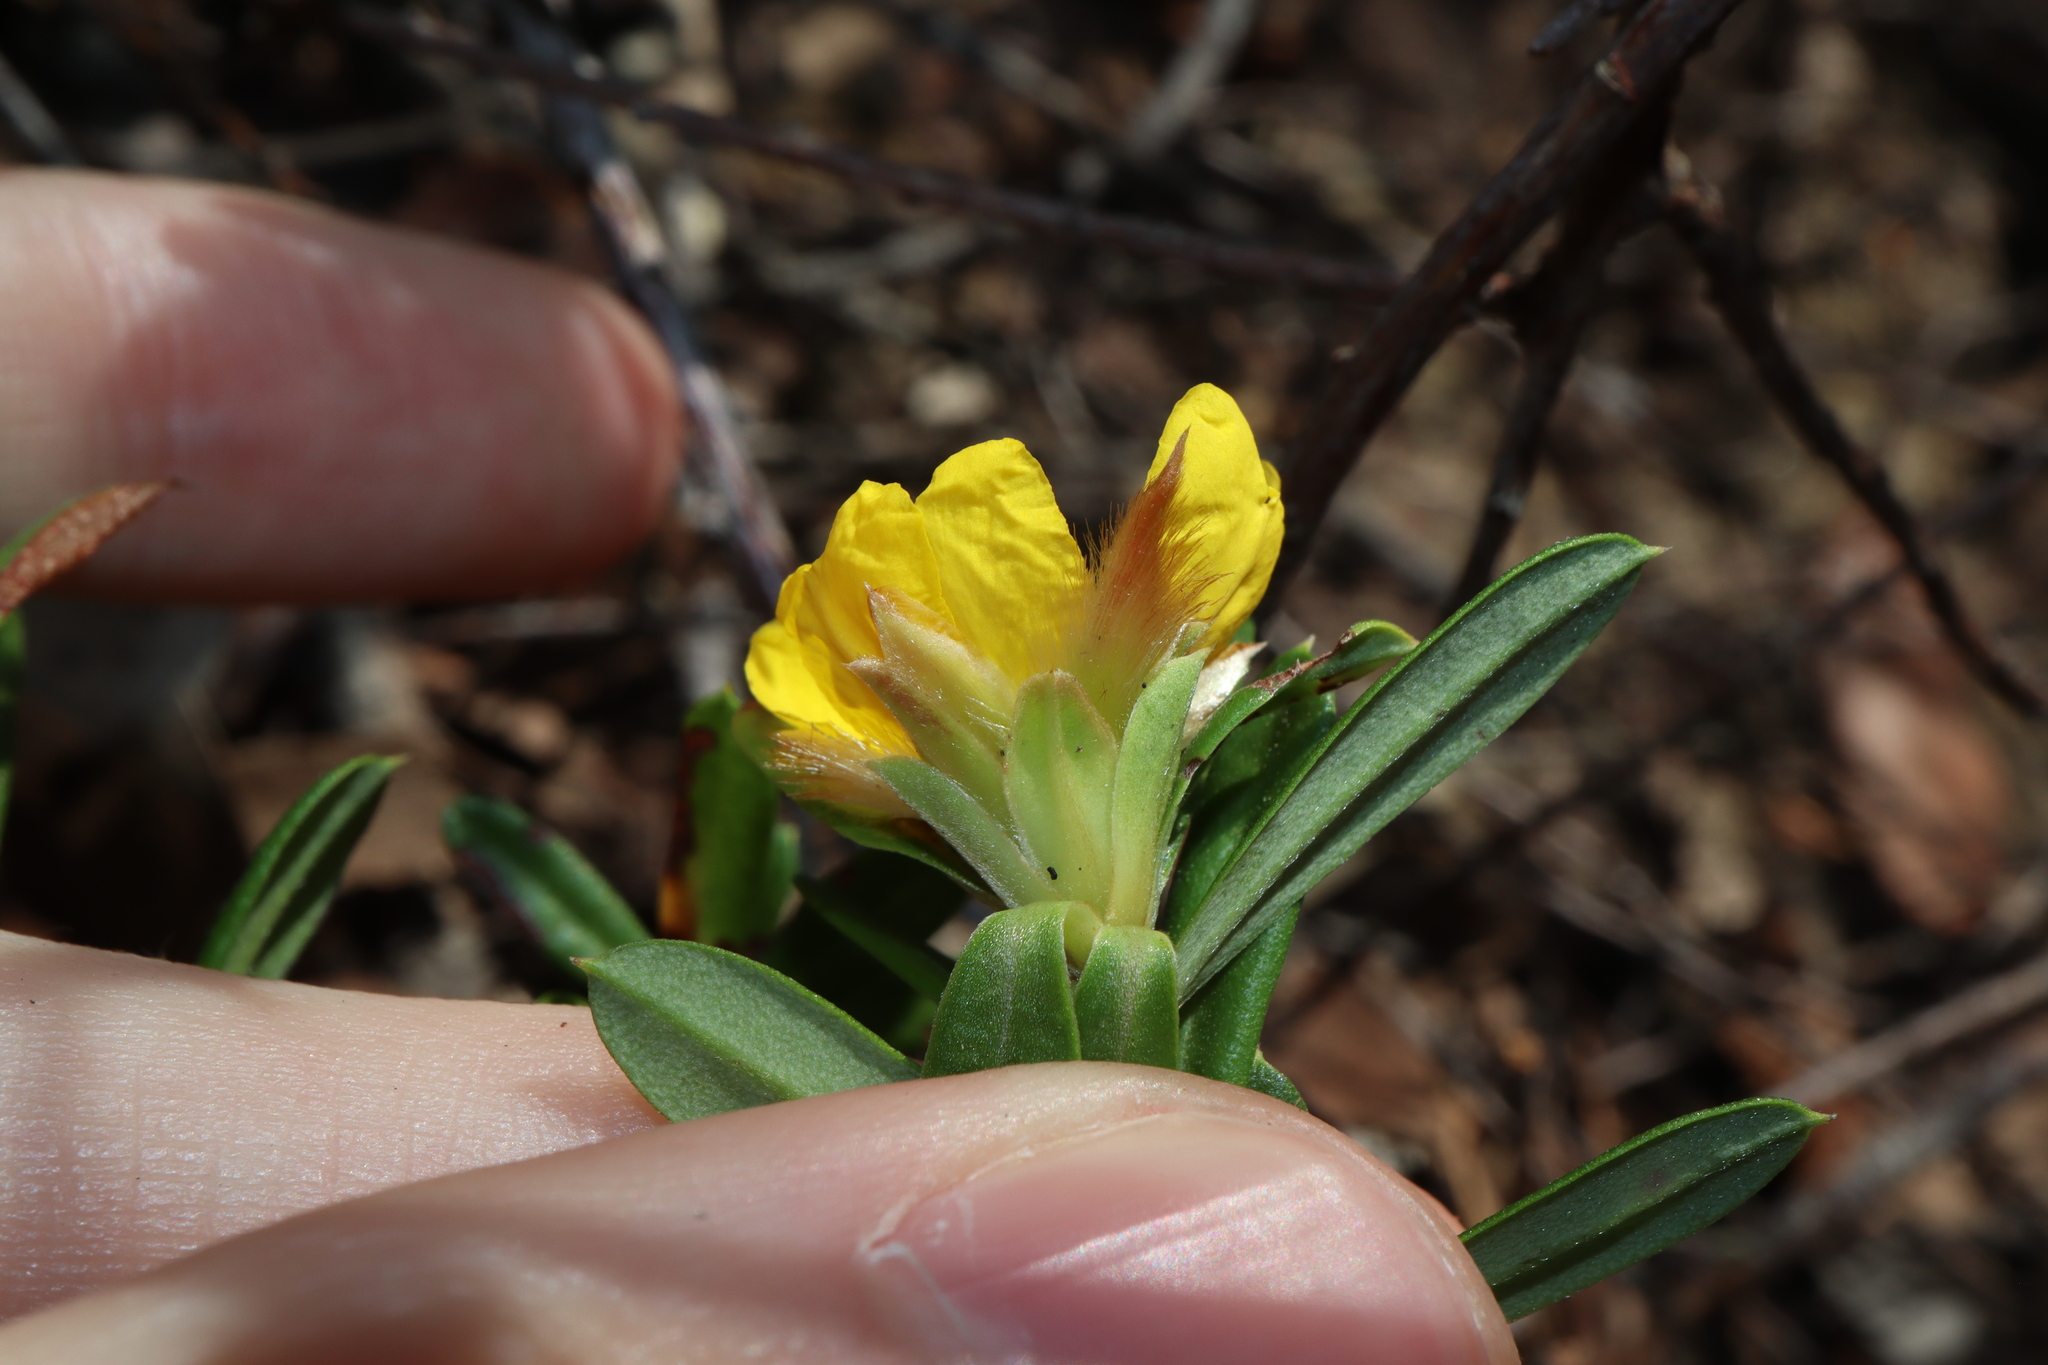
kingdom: Plantae
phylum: Tracheophyta
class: Magnoliopsida
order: Dilleniales
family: Dilleniaceae
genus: Hibbertia
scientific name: Hibbertia bracteata
